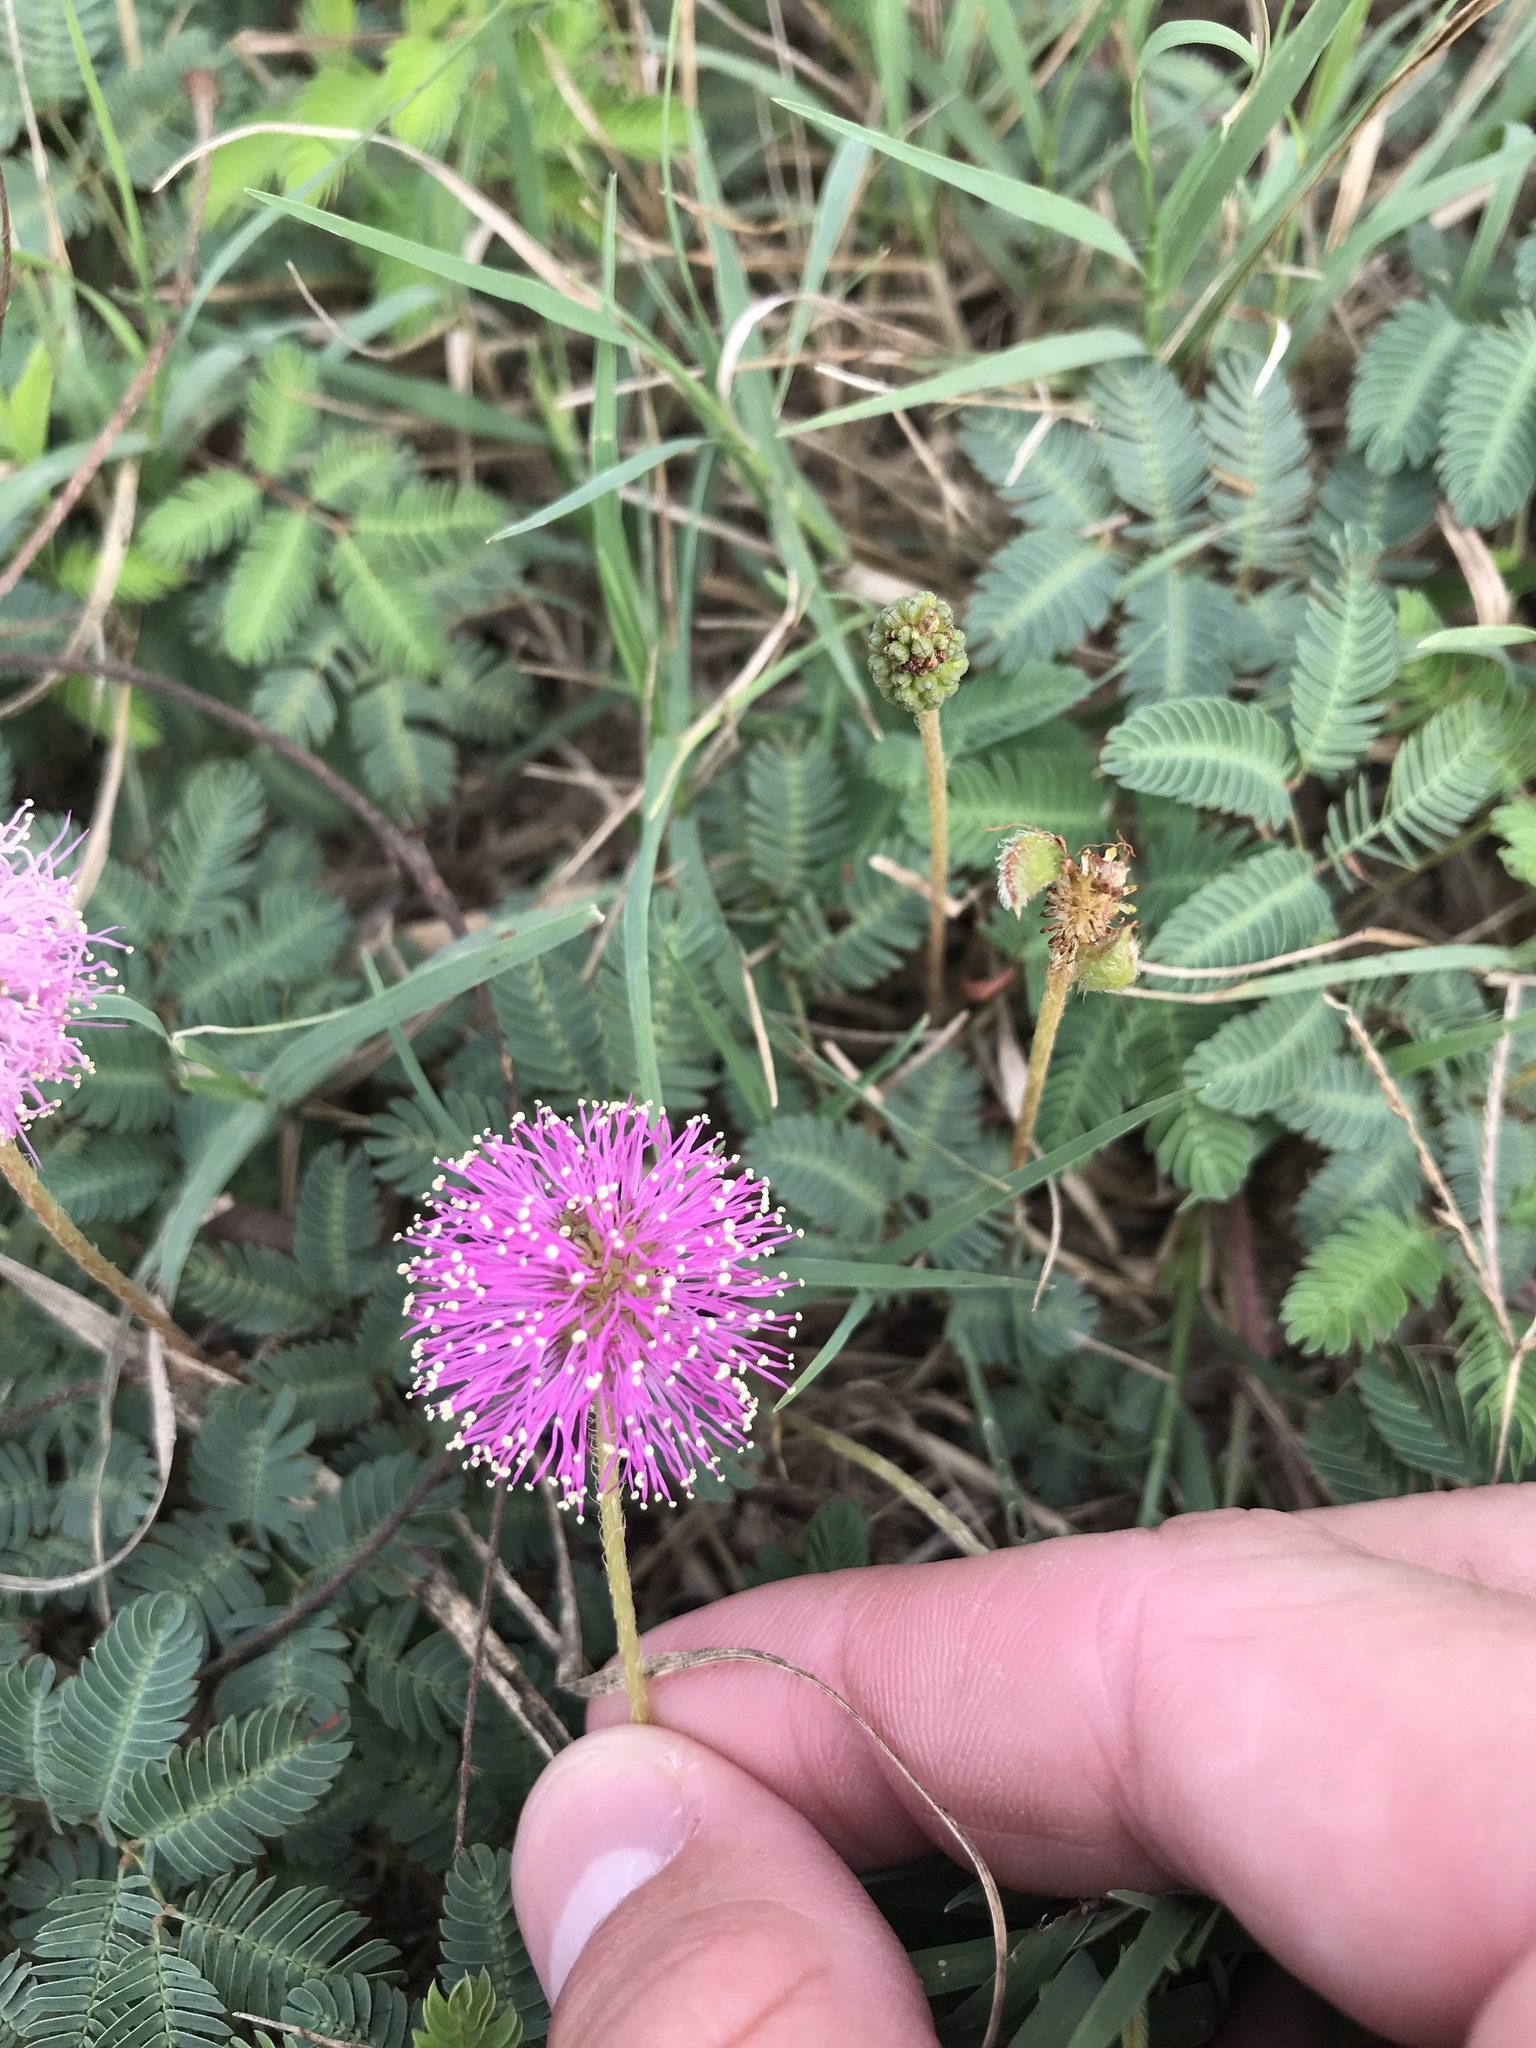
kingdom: Plantae
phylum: Tracheophyta
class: Magnoliopsida
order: Fabales
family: Fabaceae
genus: Mimosa
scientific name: Mimosa strigillosa
